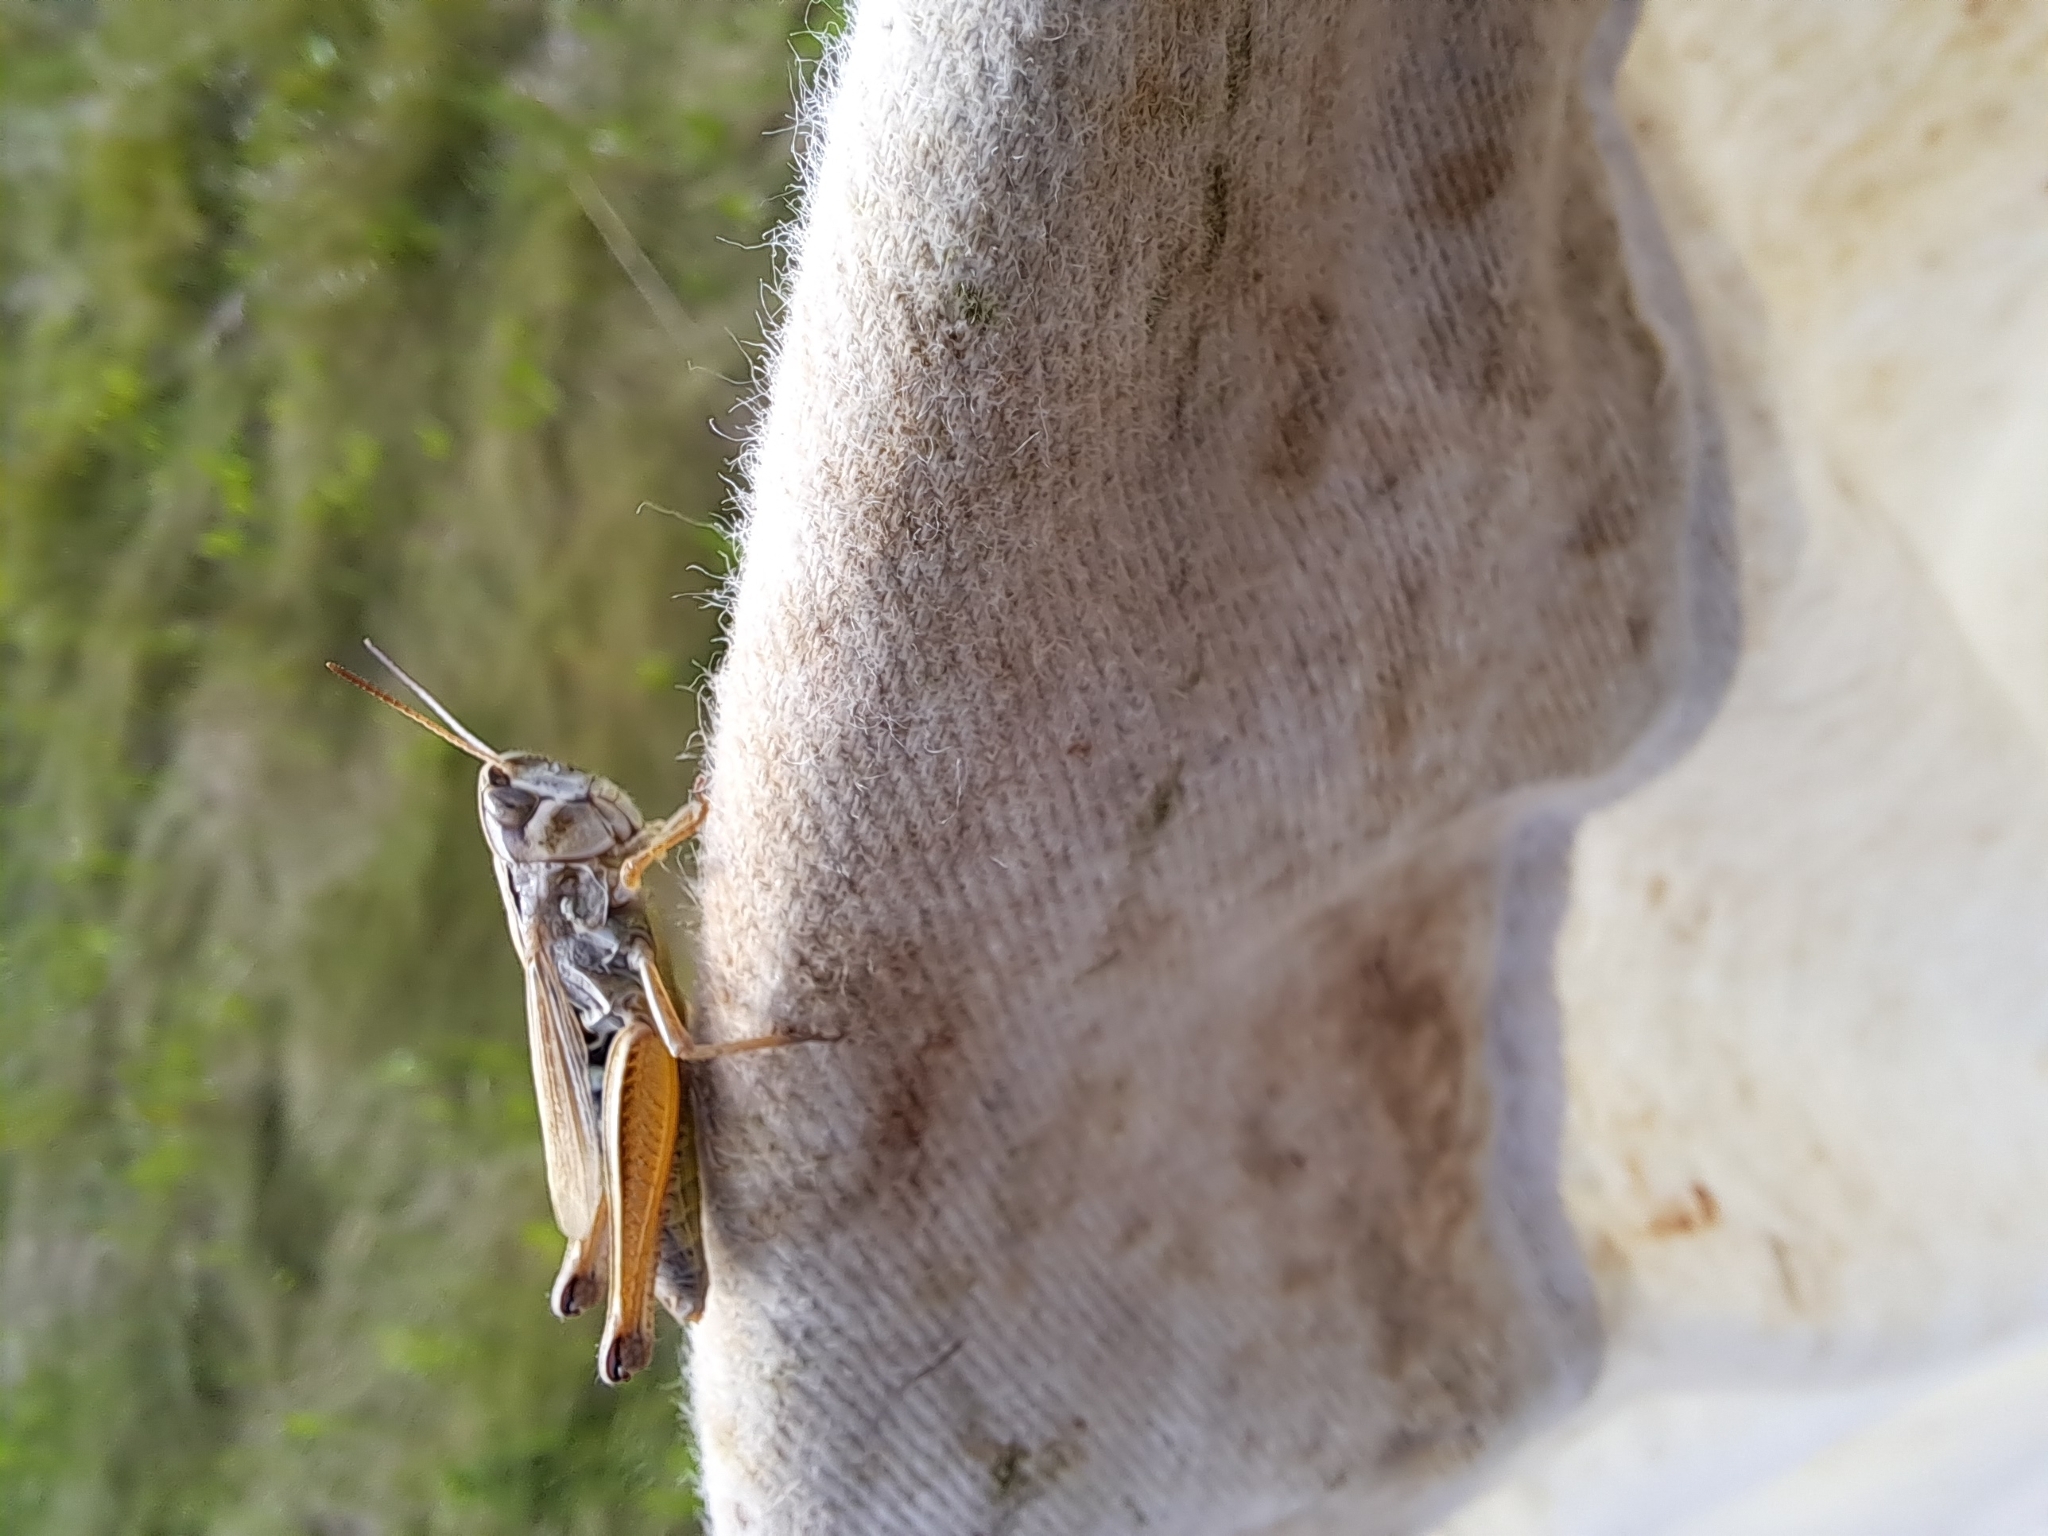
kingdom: Animalia
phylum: Arthropoda
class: Insecta
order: Orthoptera
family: Acrididae
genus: Pseudochorthippus
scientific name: Pseudochorthippus curtipennis
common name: Marsh meadow grasshopper
